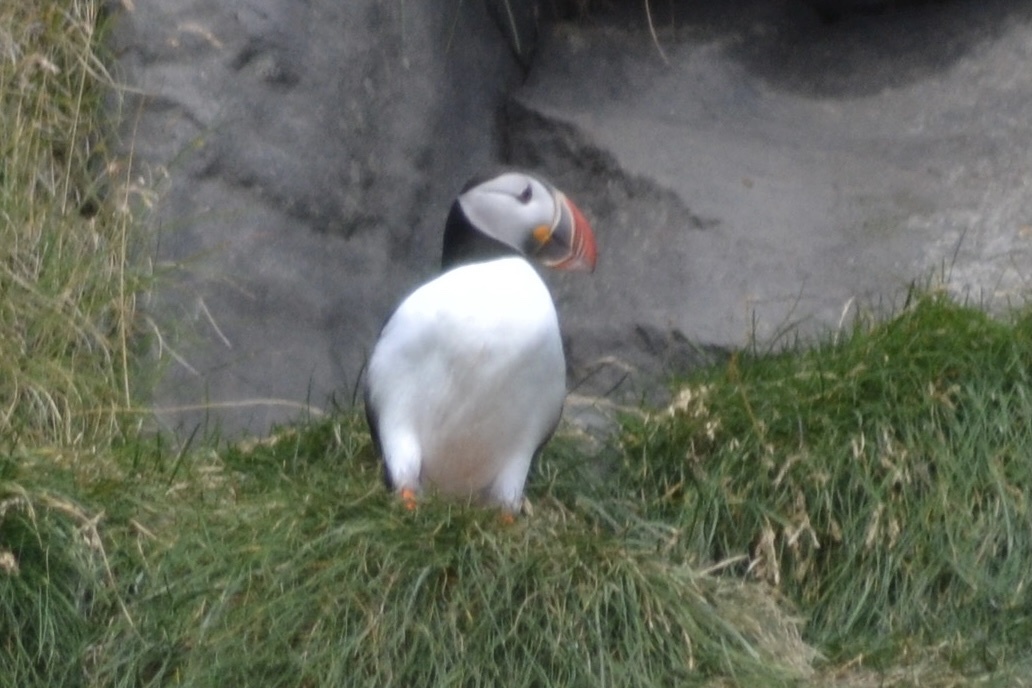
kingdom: Animalia
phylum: Chordata
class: Aves
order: Charadriiformes
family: Alcidae
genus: Fratercula
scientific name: Fratercula arctica
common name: Atlantic puffin
